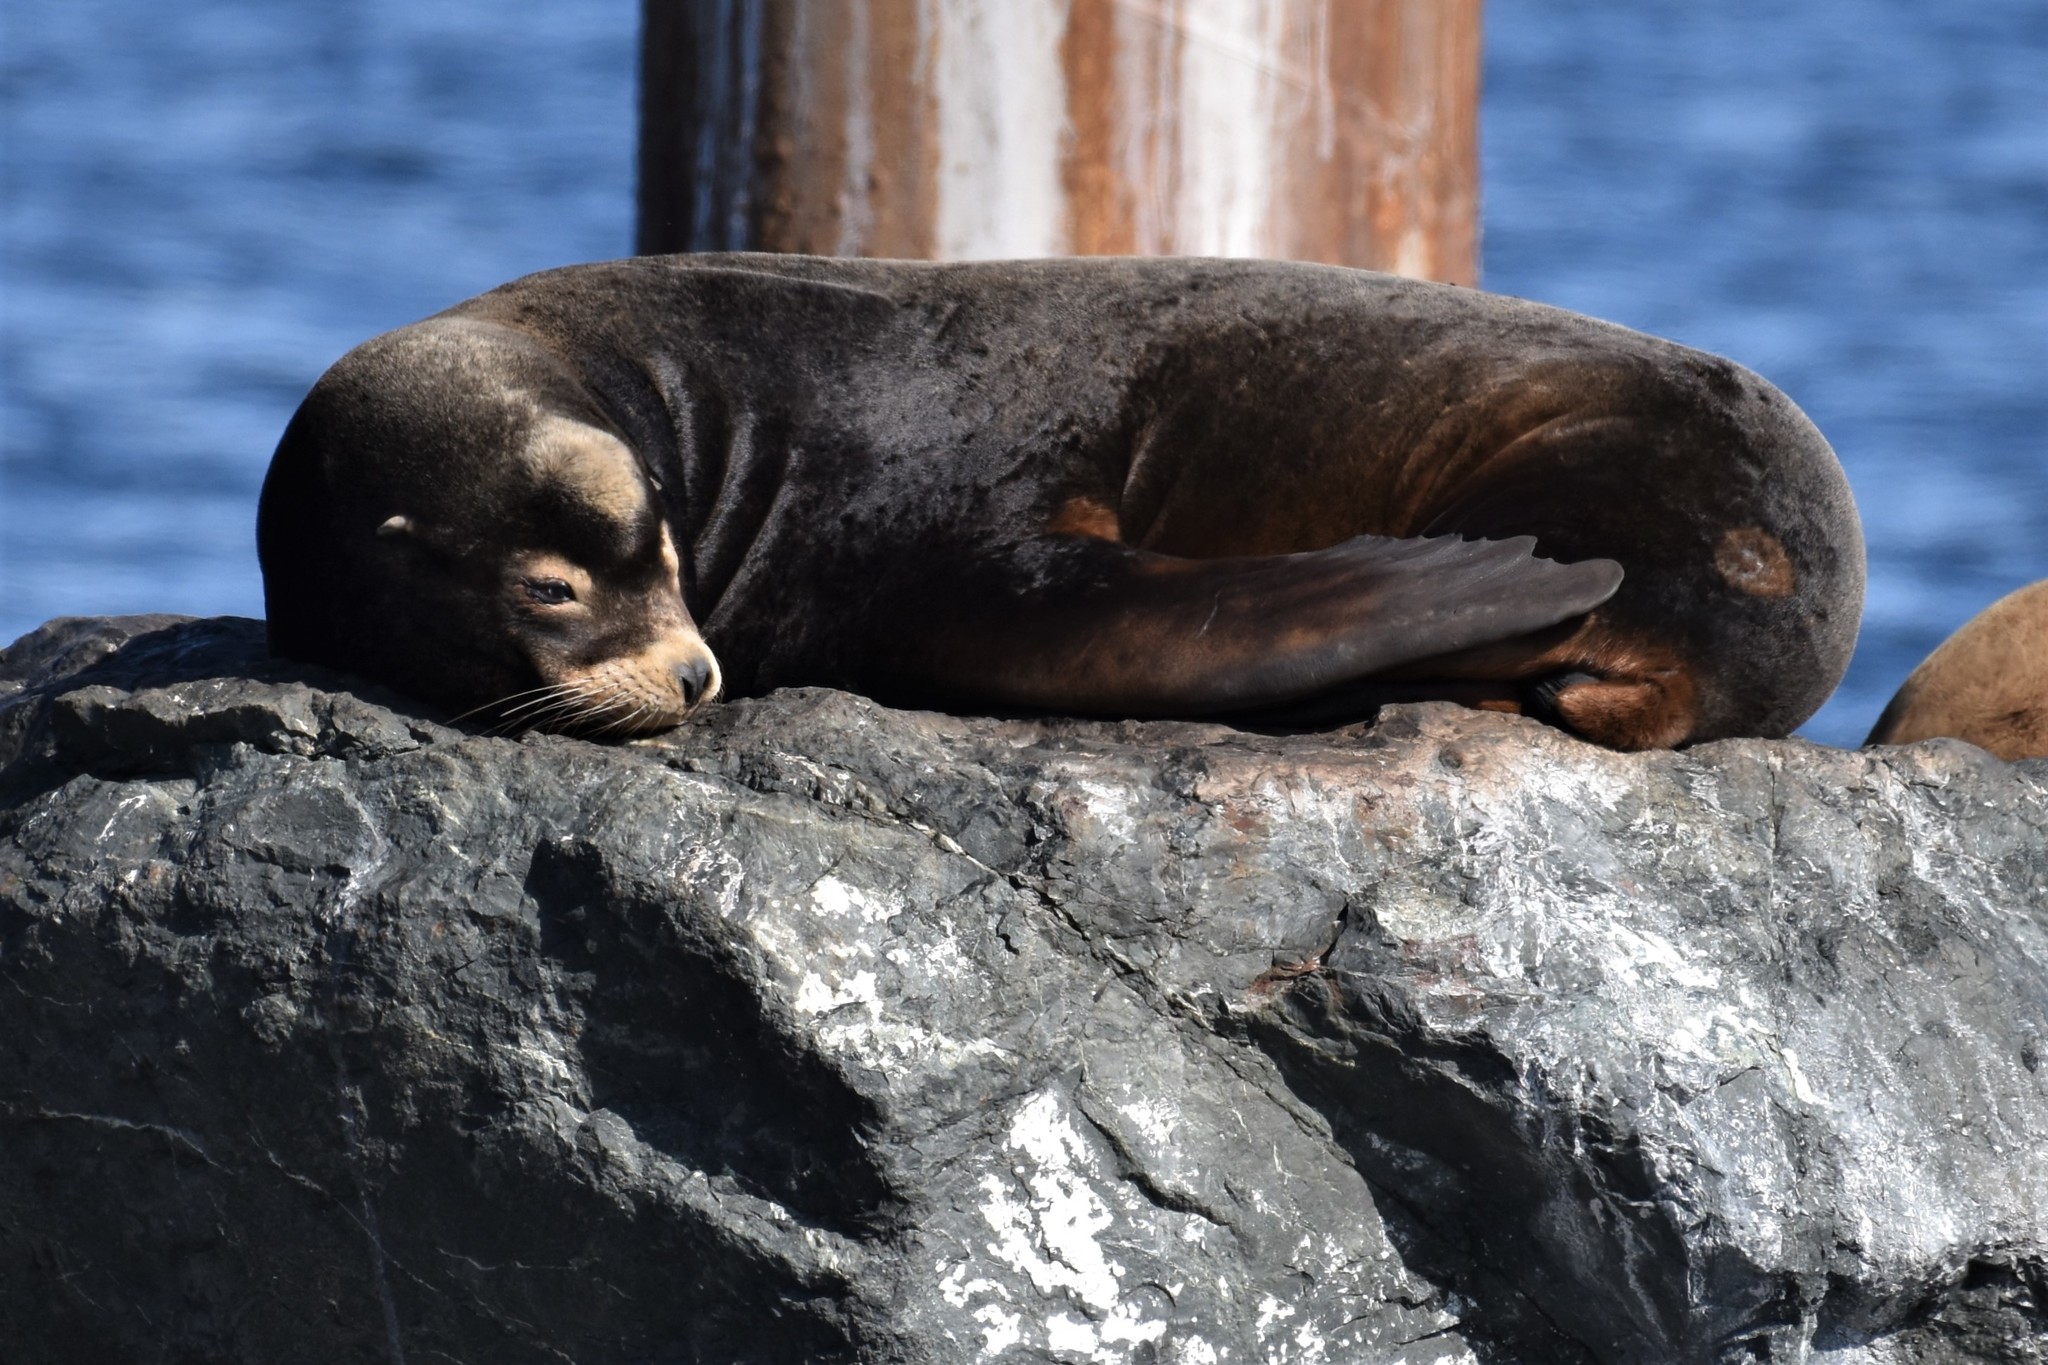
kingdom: Animalia
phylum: Chordata
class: Mammalia
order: Carnivora
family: Otariidae
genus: Zalophus
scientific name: Zalophus californianus
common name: California sea lion
